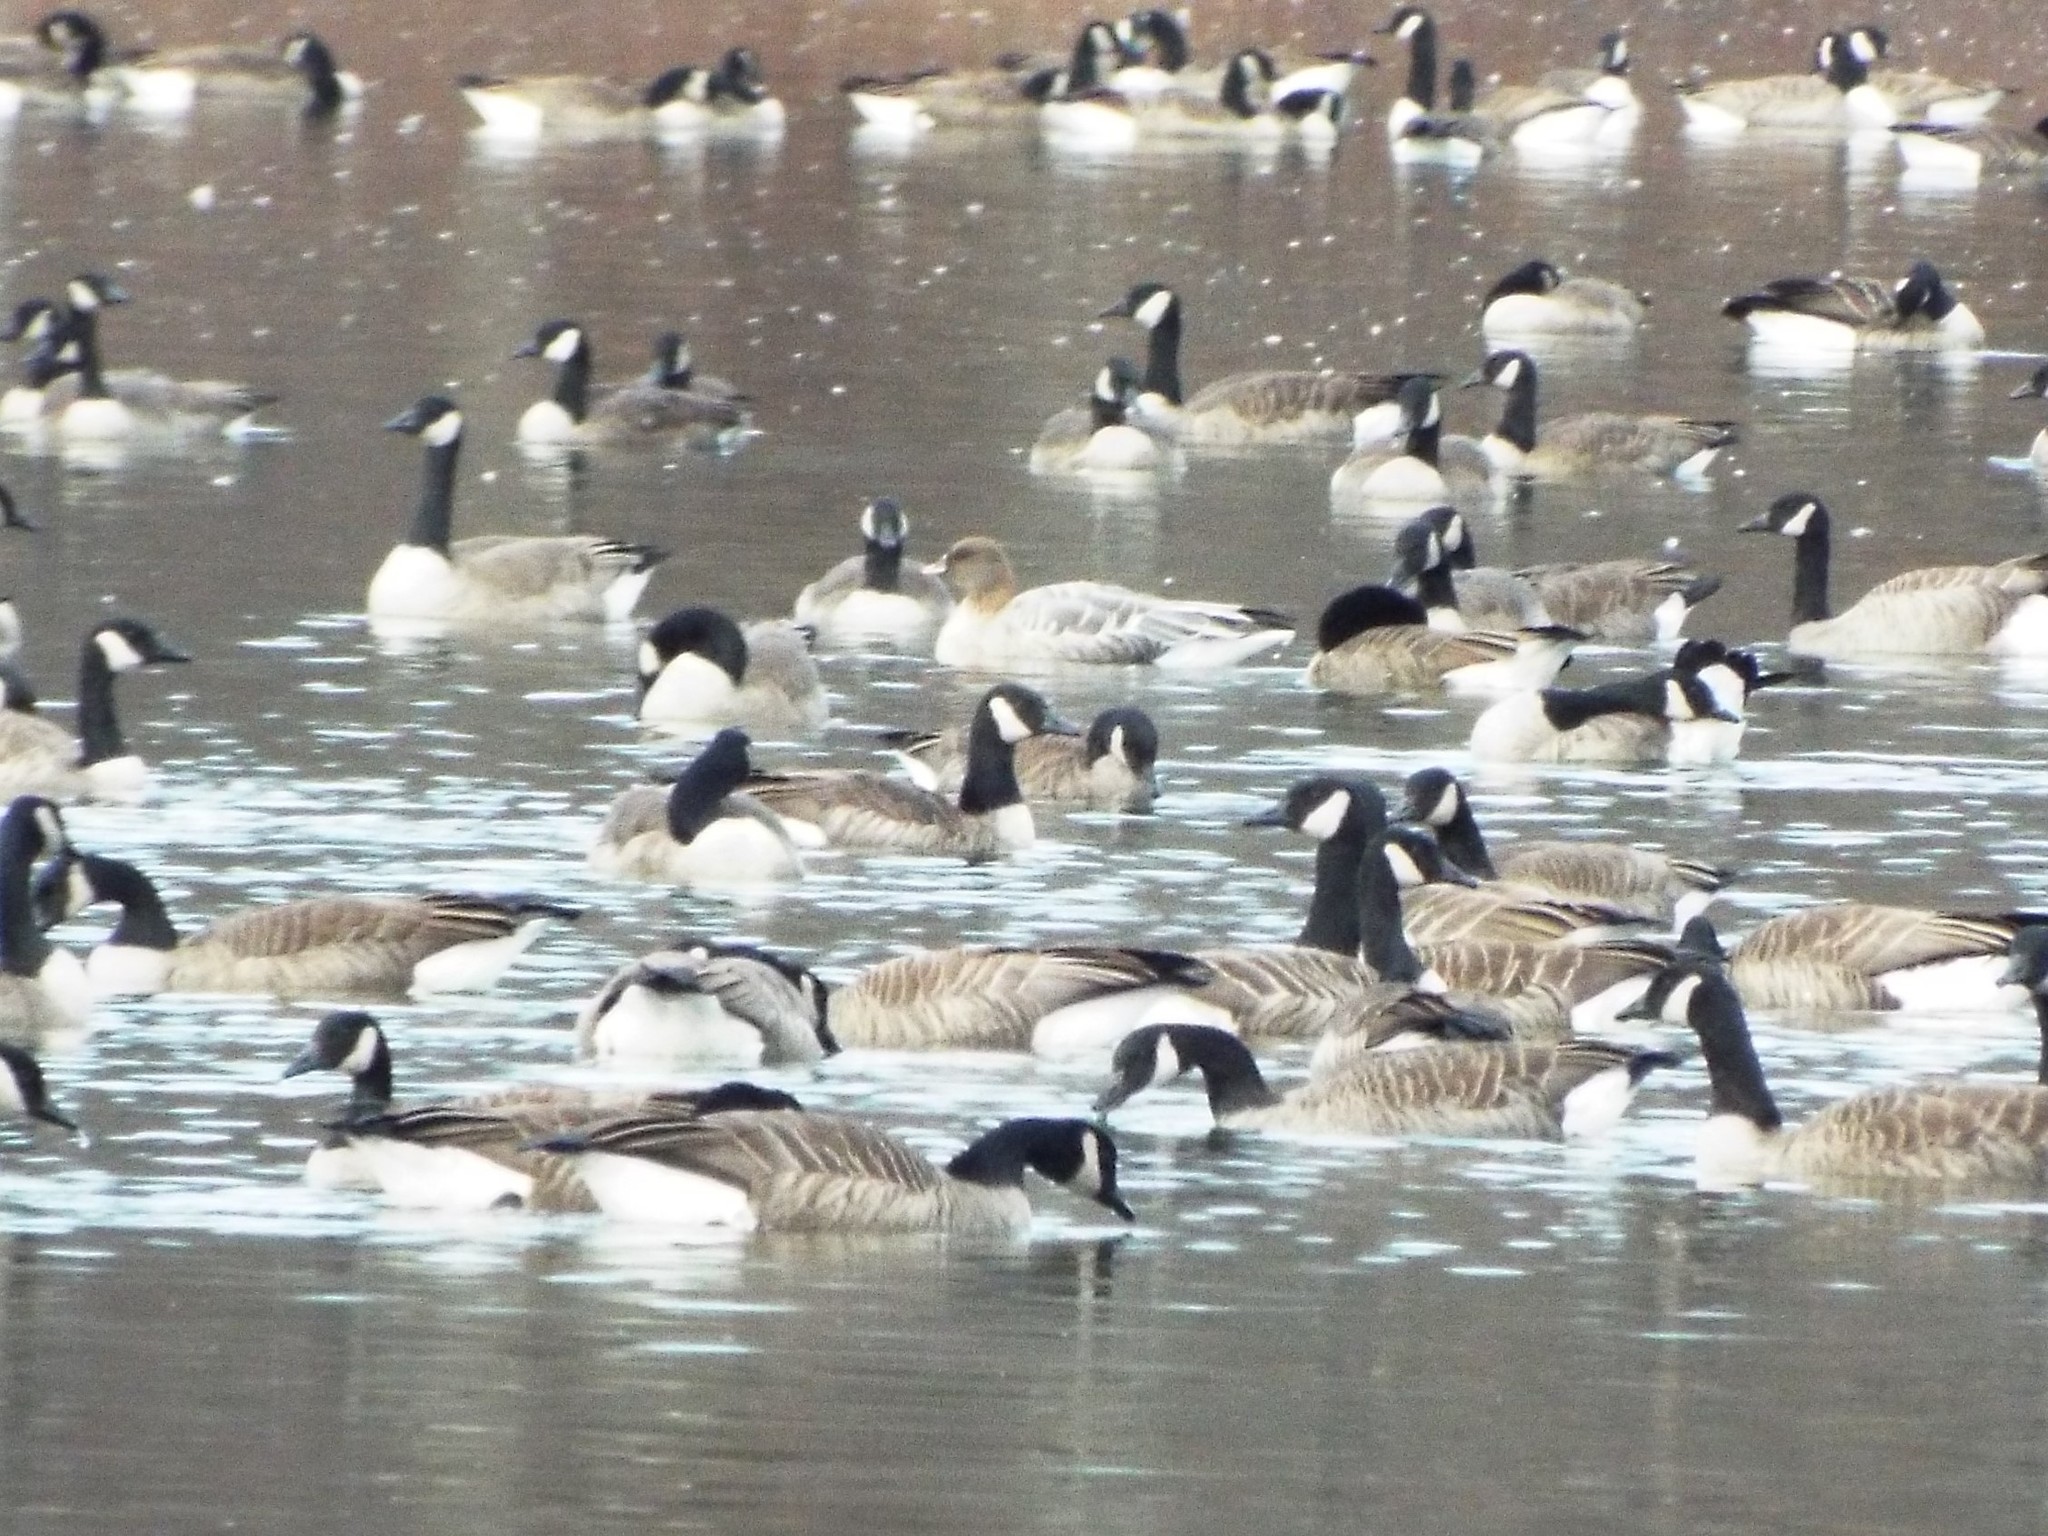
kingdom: Animalia
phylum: Chordata
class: Aves
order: Anseriformes
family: Anatidae
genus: Anser
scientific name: Anser brachyrhynchus
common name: Pink-footed goose
